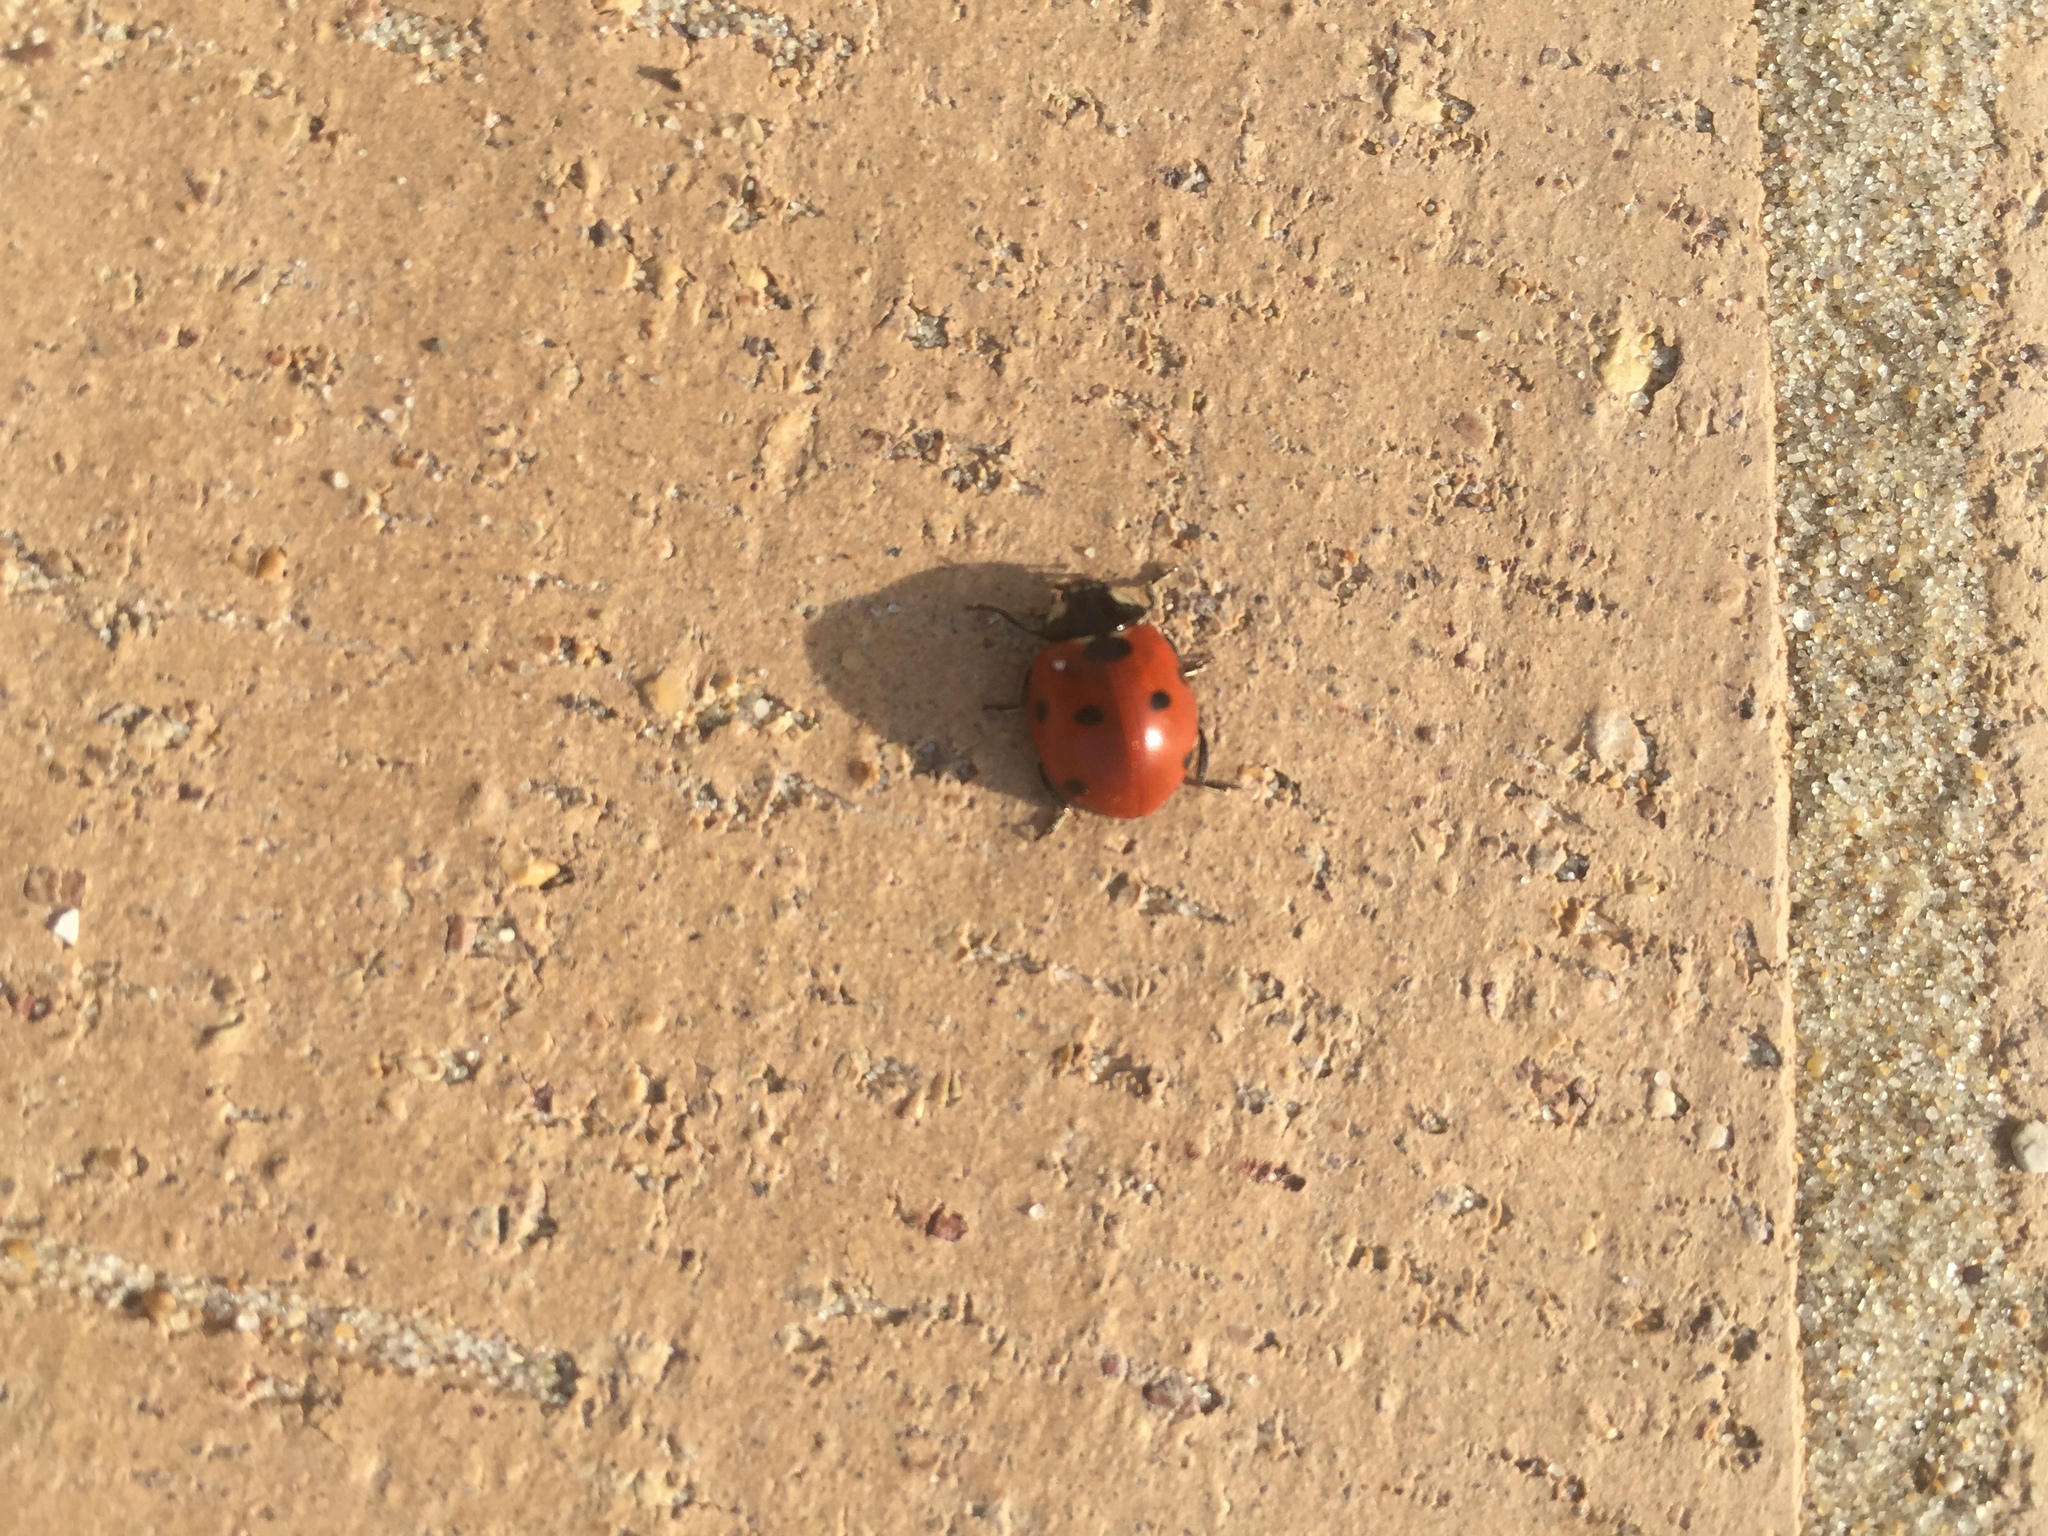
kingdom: Animalia
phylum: Arthropoda
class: Insecta
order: Coleoptera
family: Coccinellidae
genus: Coccinella
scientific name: Coccinella septempunctata
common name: Sevenspotted lady beetle
